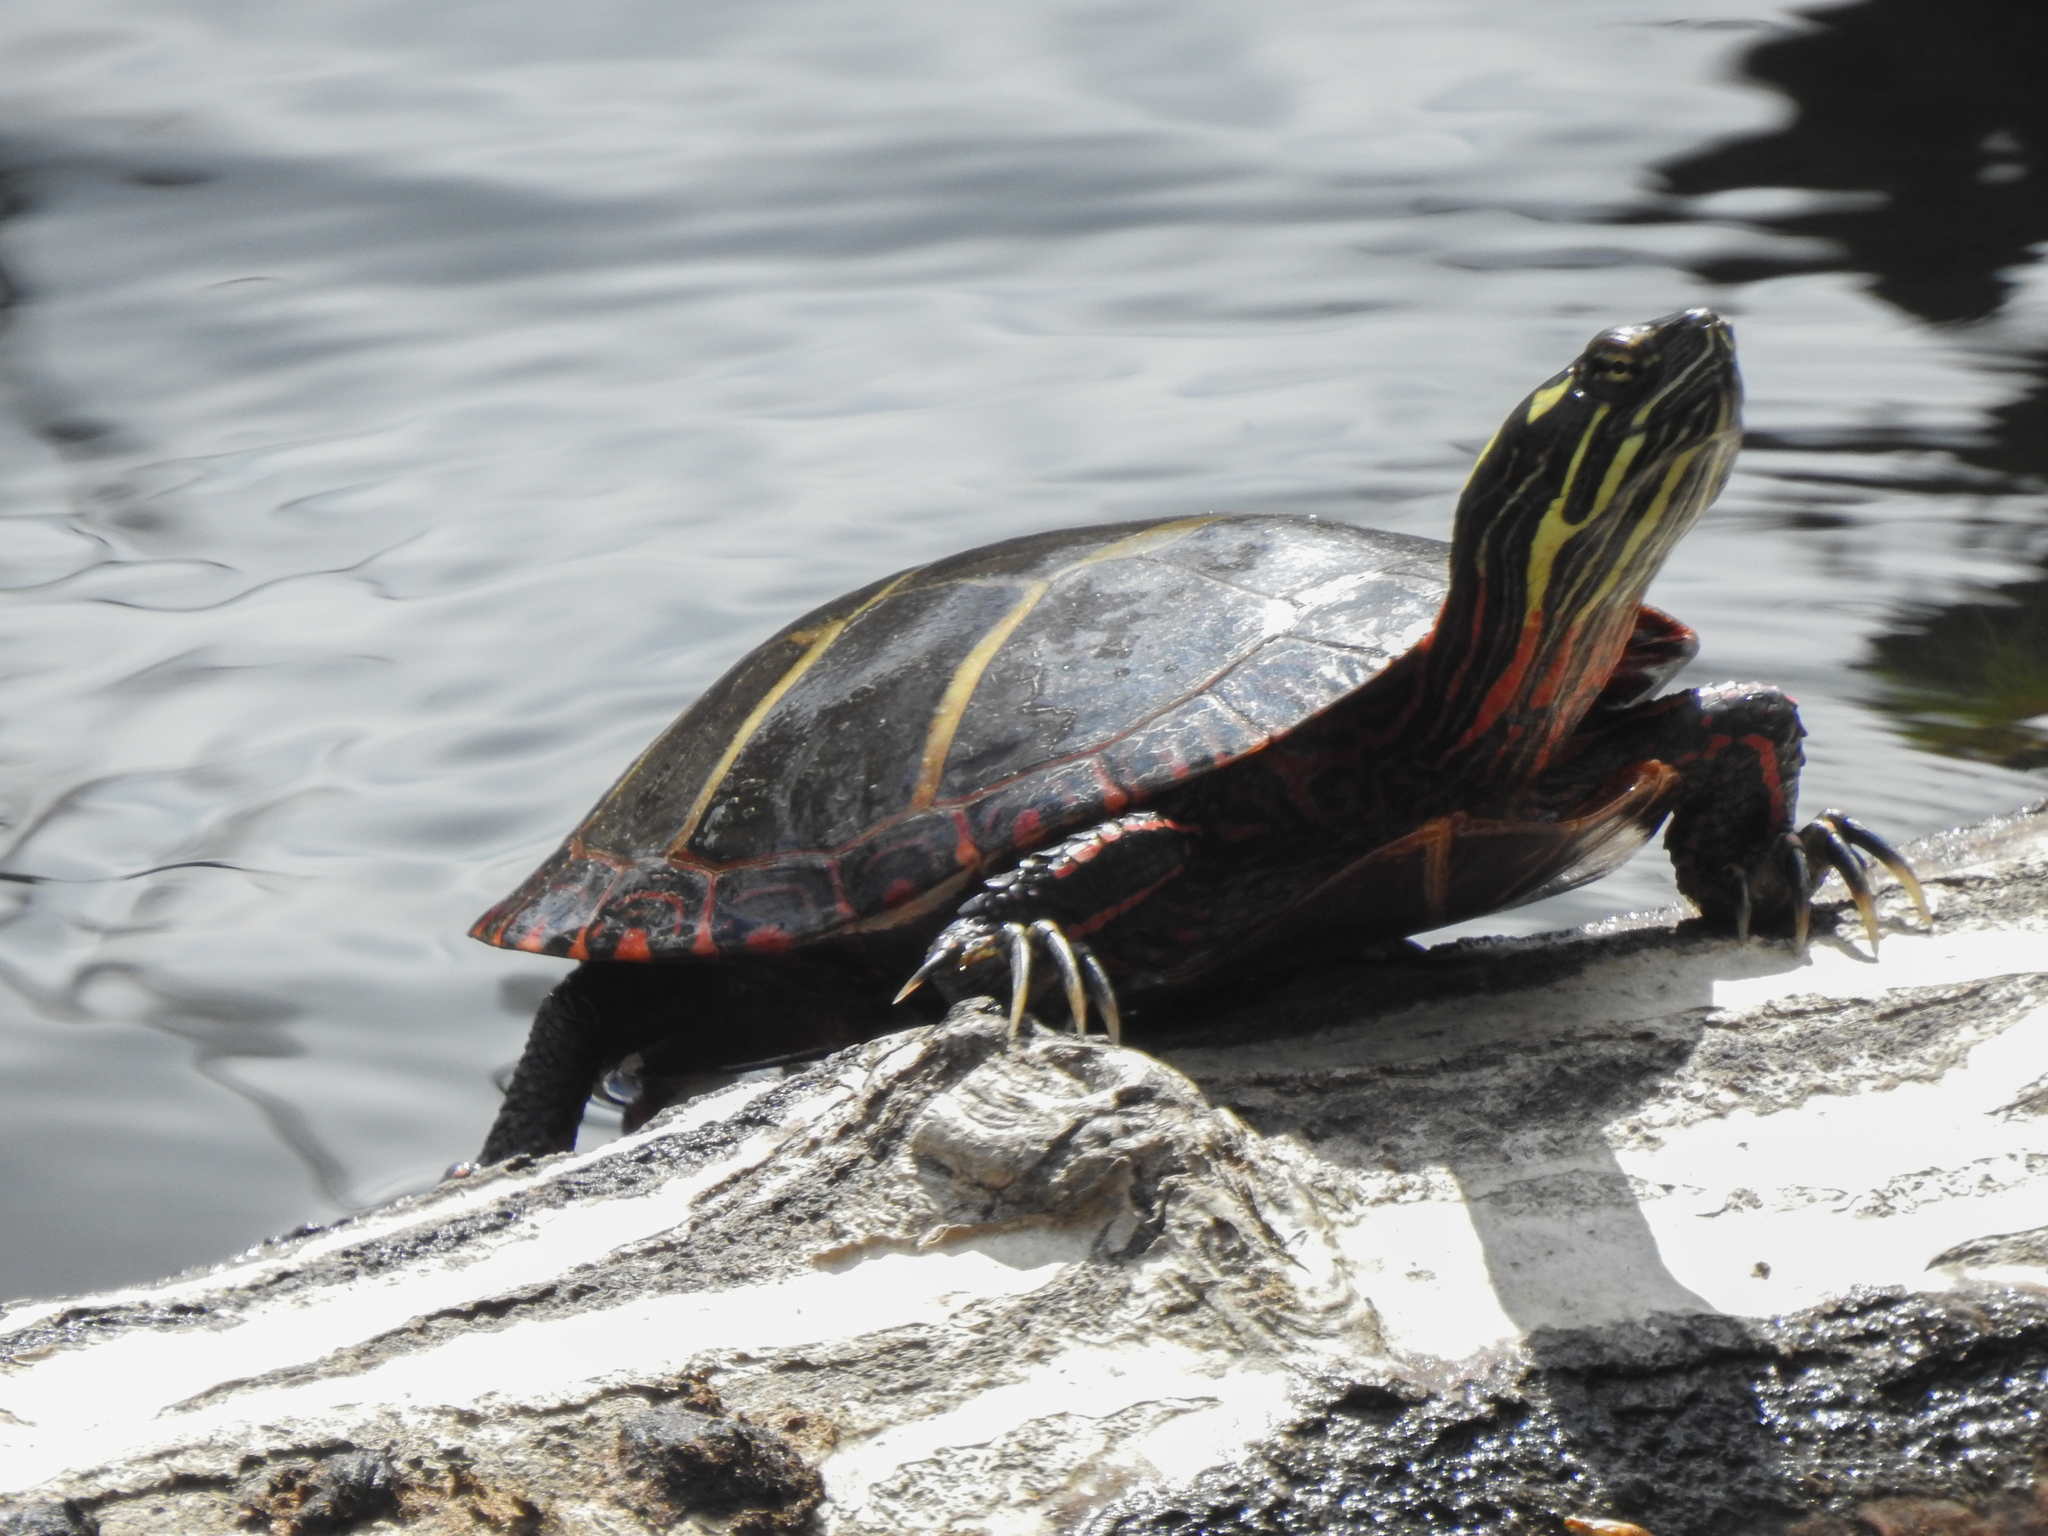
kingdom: Animalia
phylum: Chordata
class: Testudines
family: Emydidae
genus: Chrysemys
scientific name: Chrysemys picta
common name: Painted turtle
